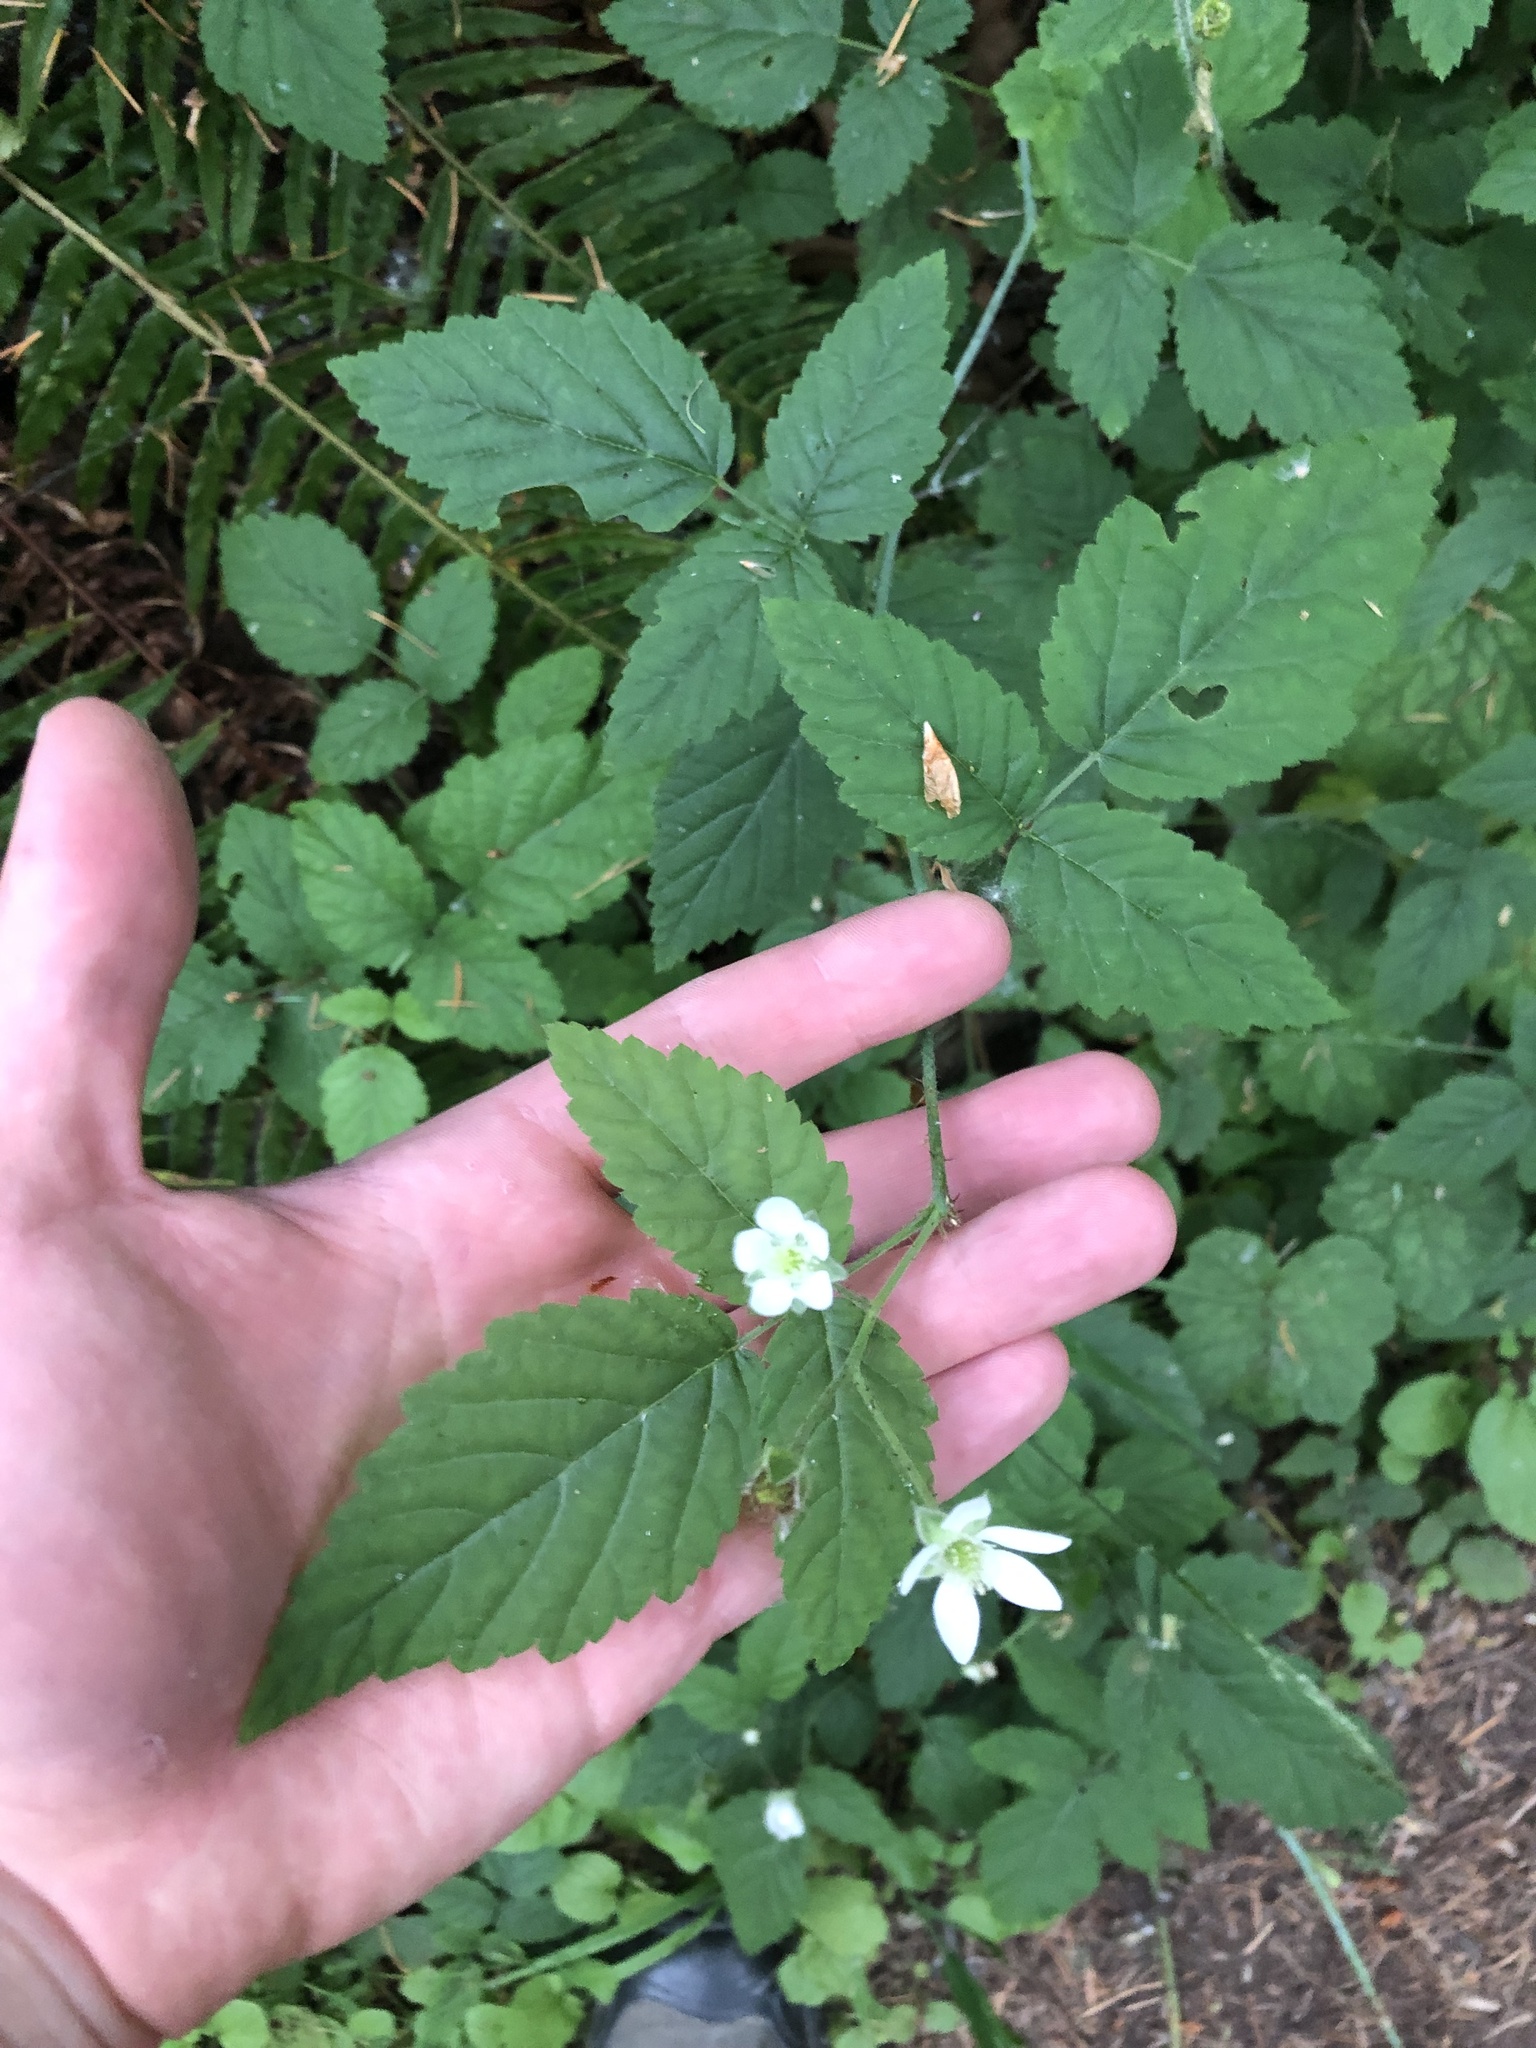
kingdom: Plantae
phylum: Tracheophyta
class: Magnoliopsida
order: Rosales
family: Rosaceae
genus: Rubus
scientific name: Rubus ursinus
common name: Pacific blackberry
